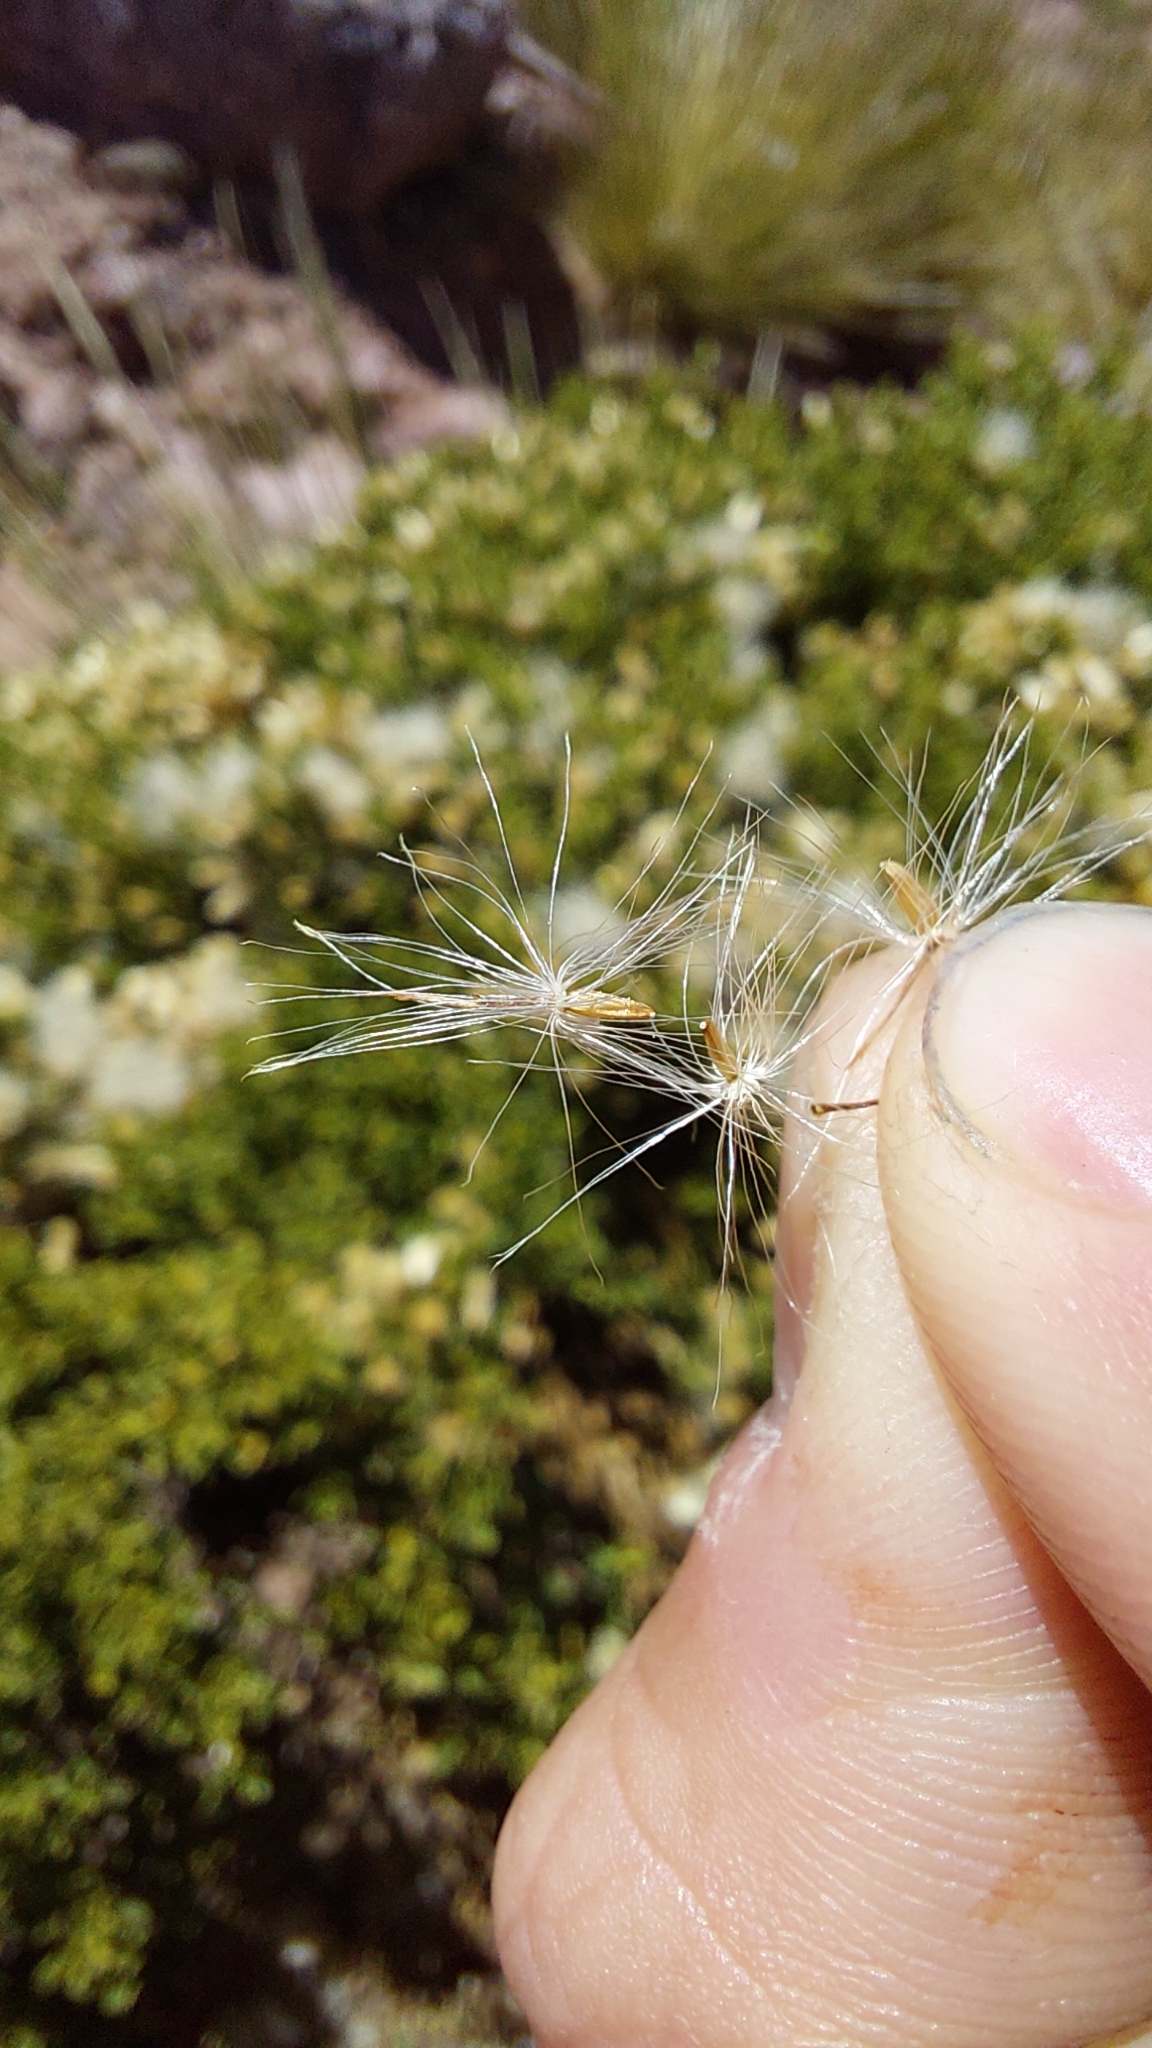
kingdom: Plantae
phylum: Tracheophyta
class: Magnoliopsida
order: Asterales
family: Asteraceae
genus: Baccharis
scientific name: Baccharis neorupestris
